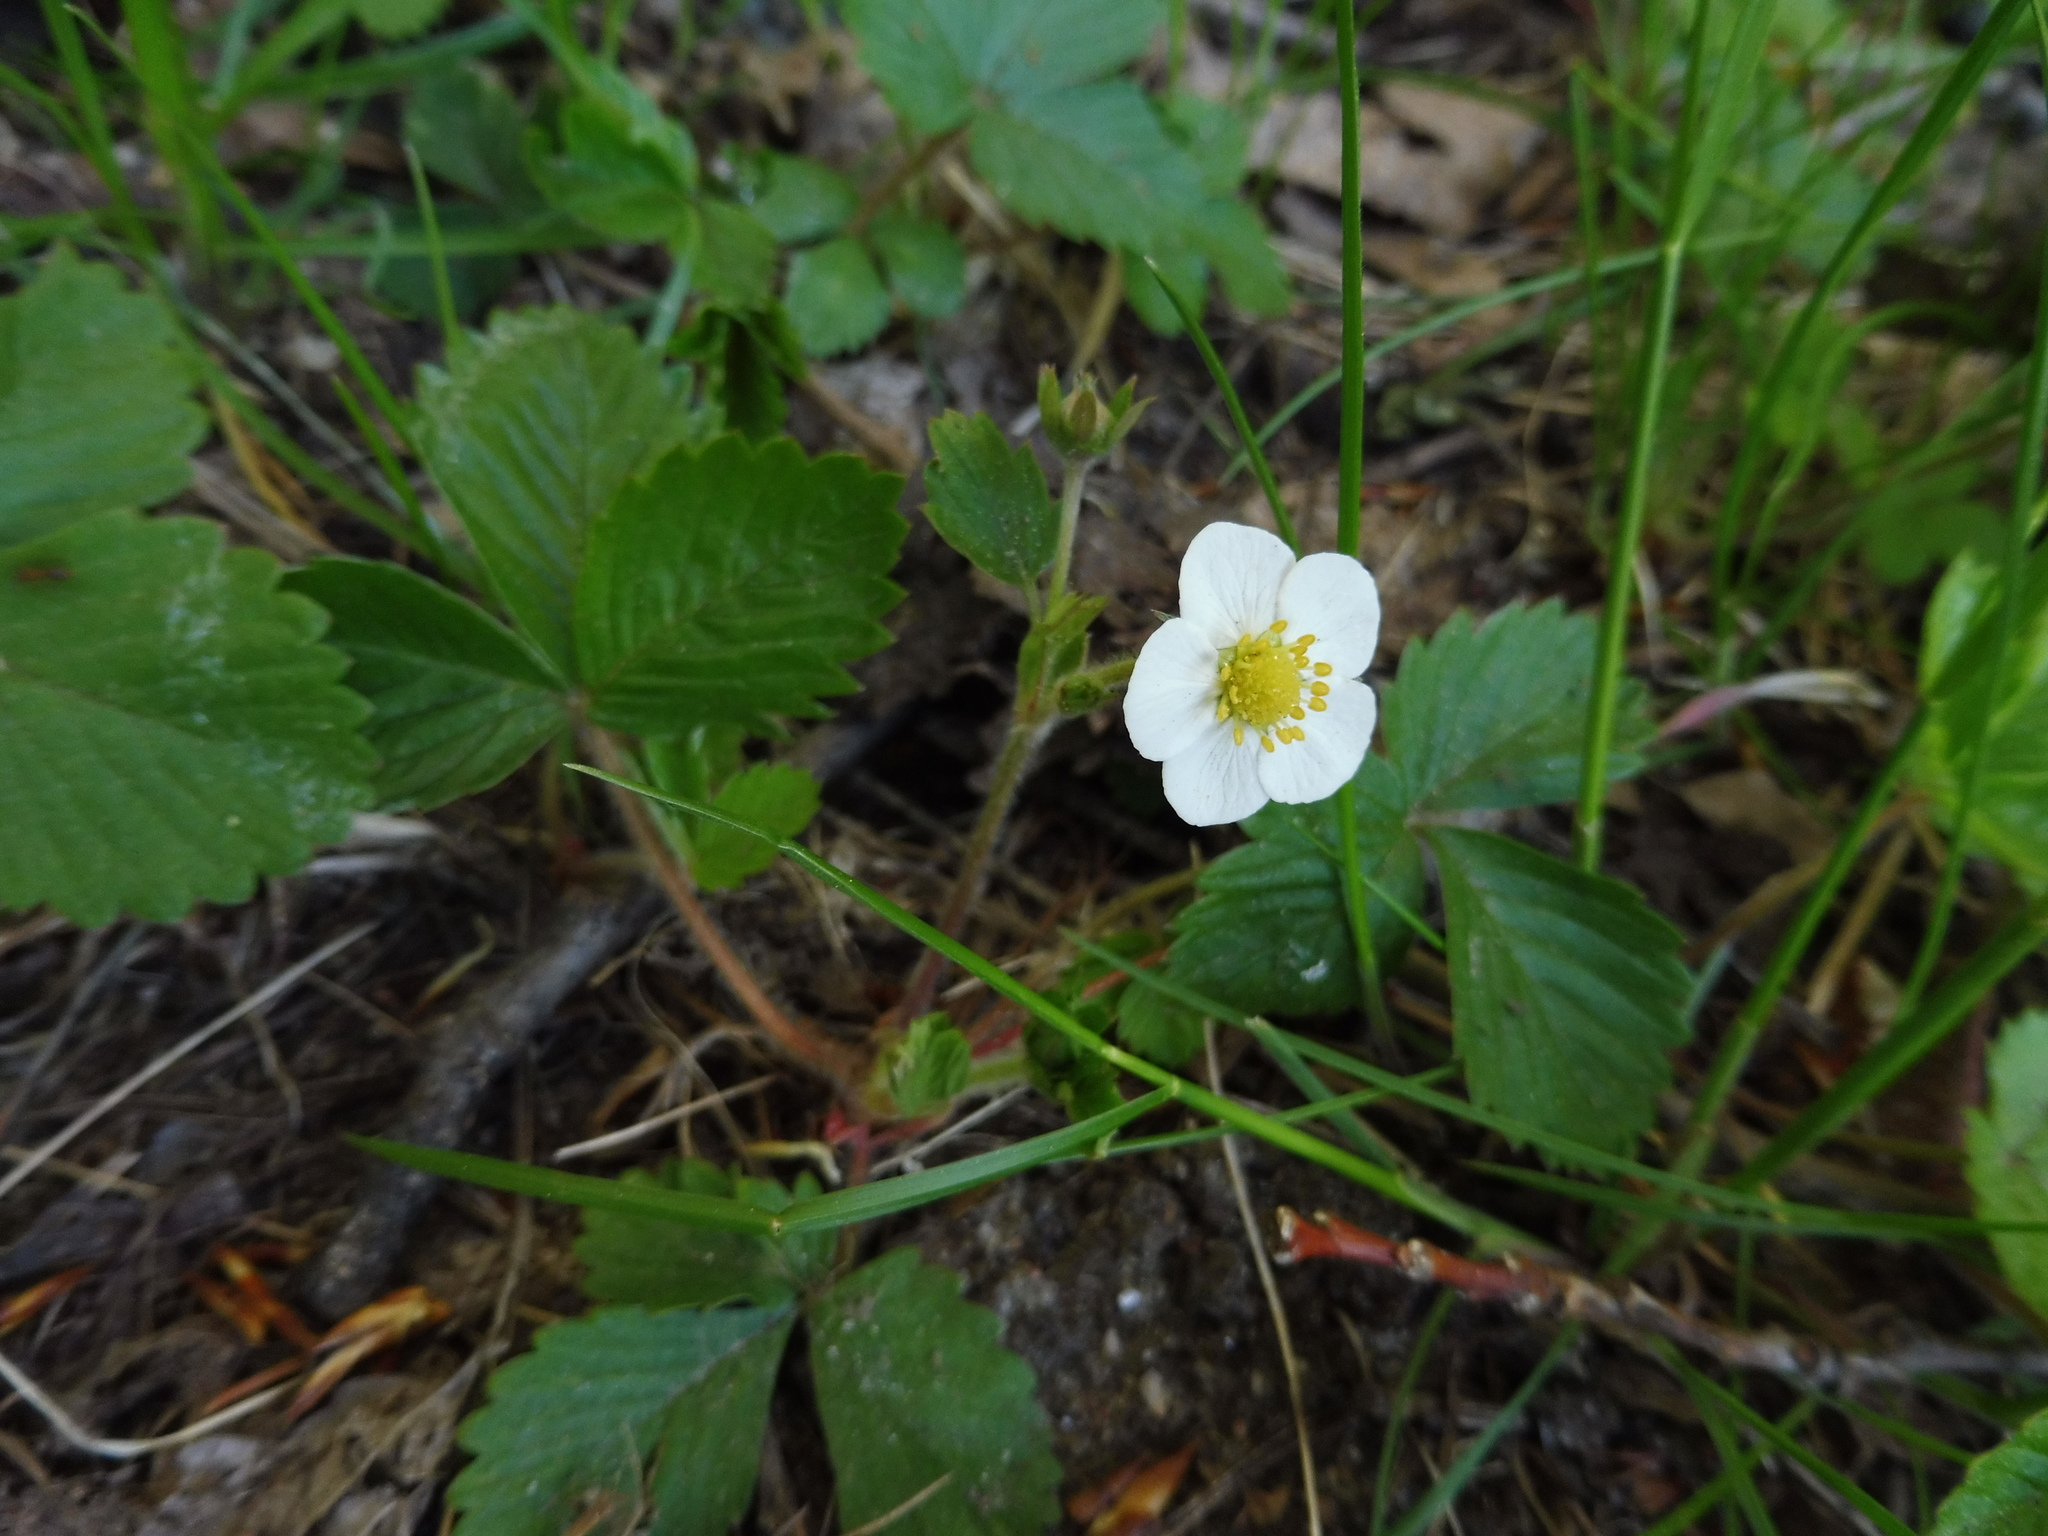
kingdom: Plantae
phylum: Tracheophyta
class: Magnoliopsida
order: Rosales
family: Rosaceae
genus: Fragaria
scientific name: Fragaria vesca
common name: Wild strawberry
